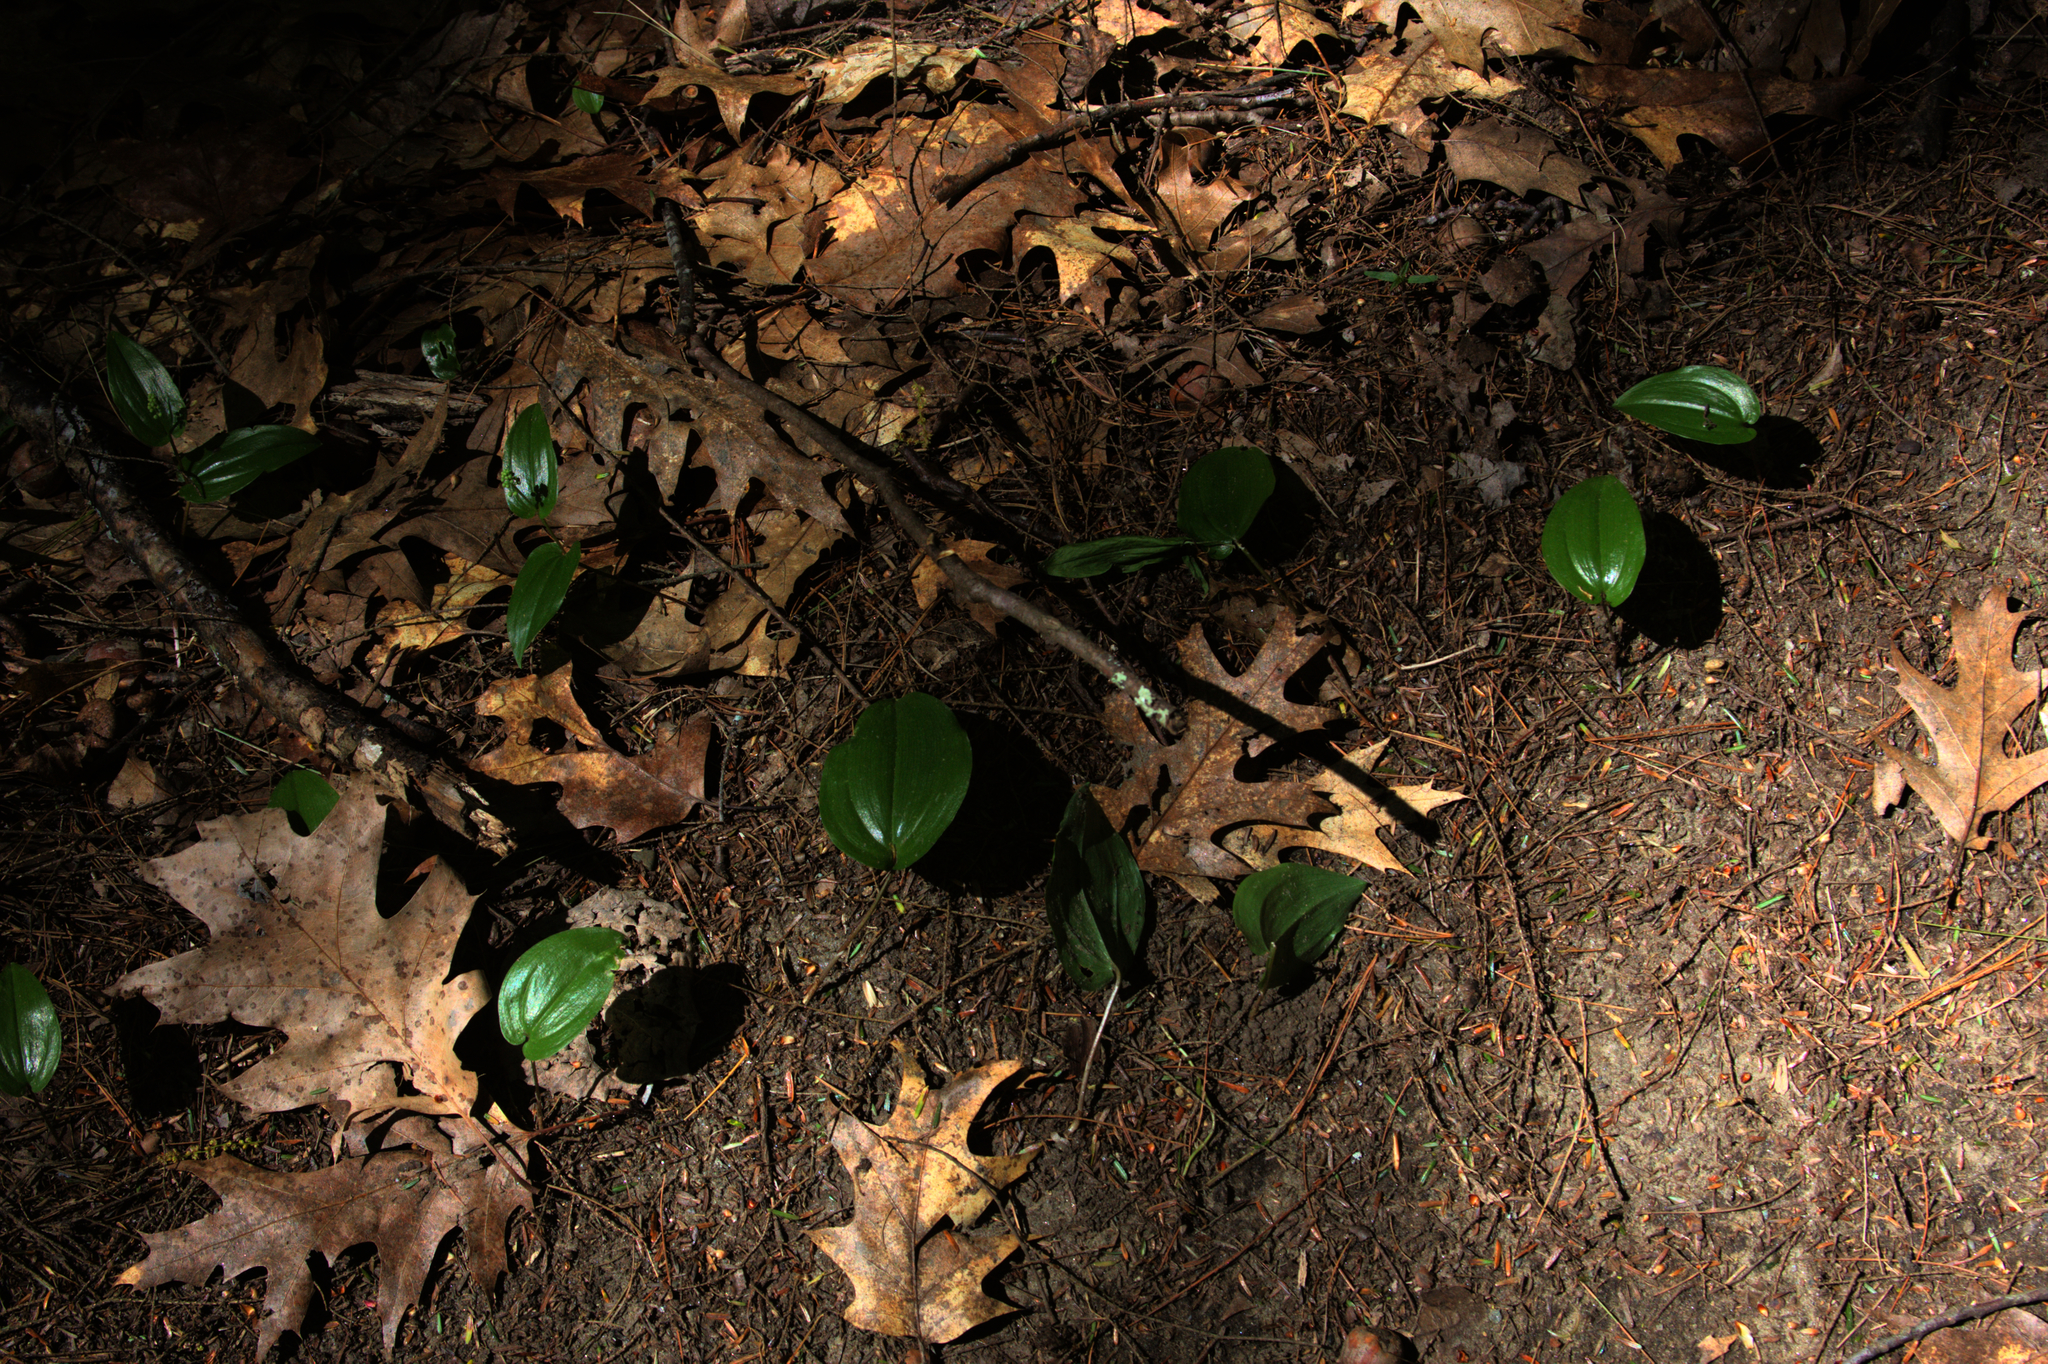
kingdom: Plantae
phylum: Tracheophyta
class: Liliopsida
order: Asparagales
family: Asparagaceae
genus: Maianthemum
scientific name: Maianthemum canadense
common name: False lily-of-the-valley
